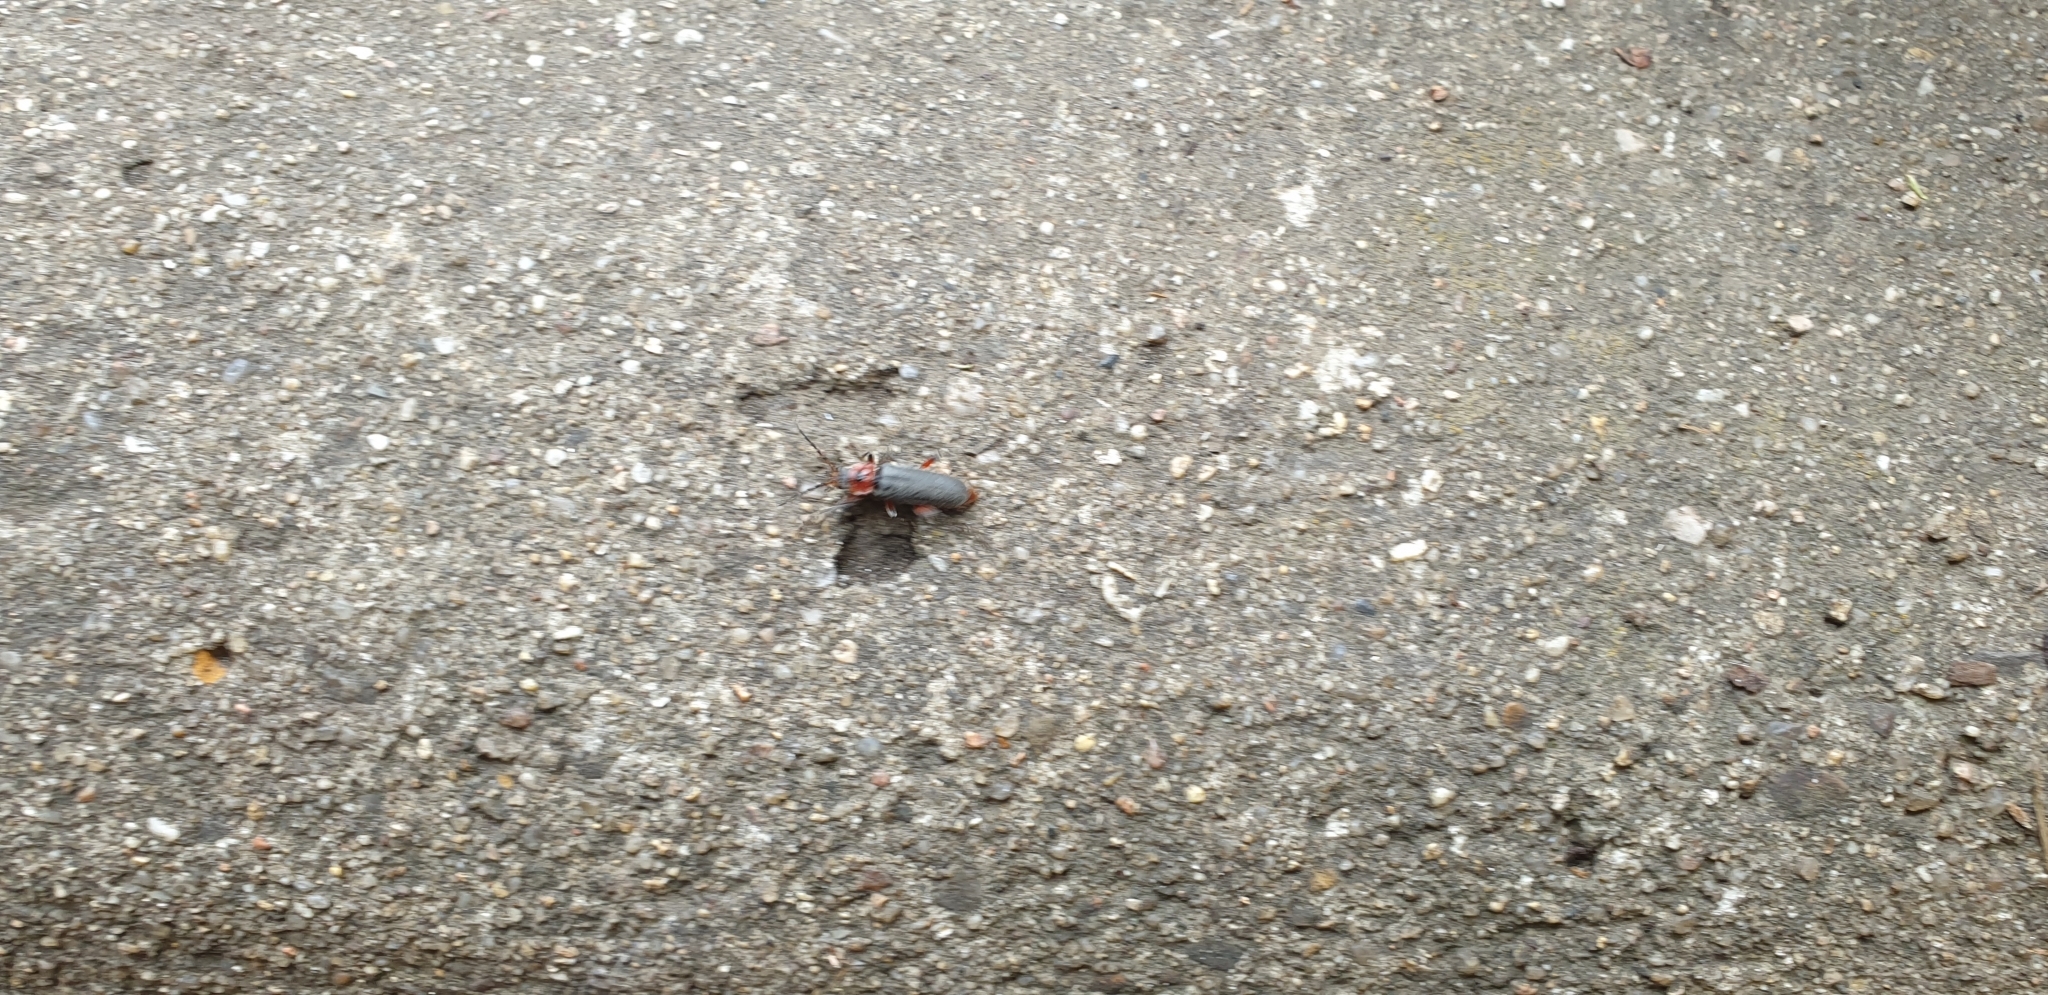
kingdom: Animalia
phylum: Arthropoda
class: Insecta
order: Coleoptera
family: Cantharidae
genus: Cantharis
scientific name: Cantharis rustica
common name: Soldier beetle
